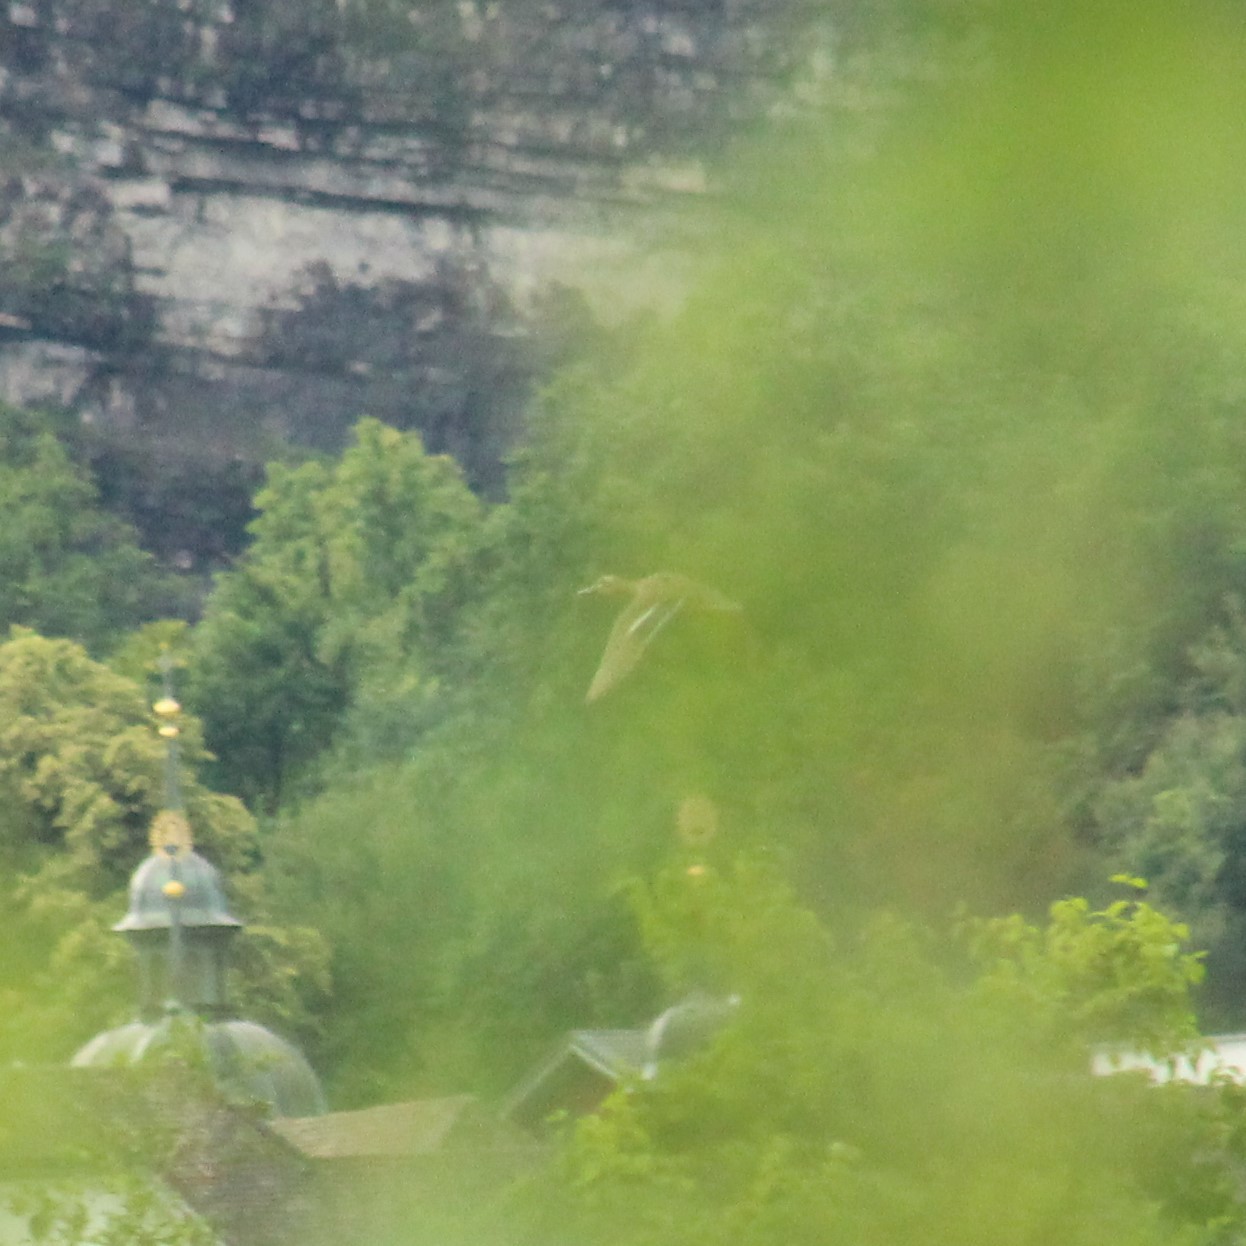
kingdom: Animalia
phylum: Chordata
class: Aves
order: Anseriformes
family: Anatidae
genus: Anas
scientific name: Anas platyrhynchos
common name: Mallard
